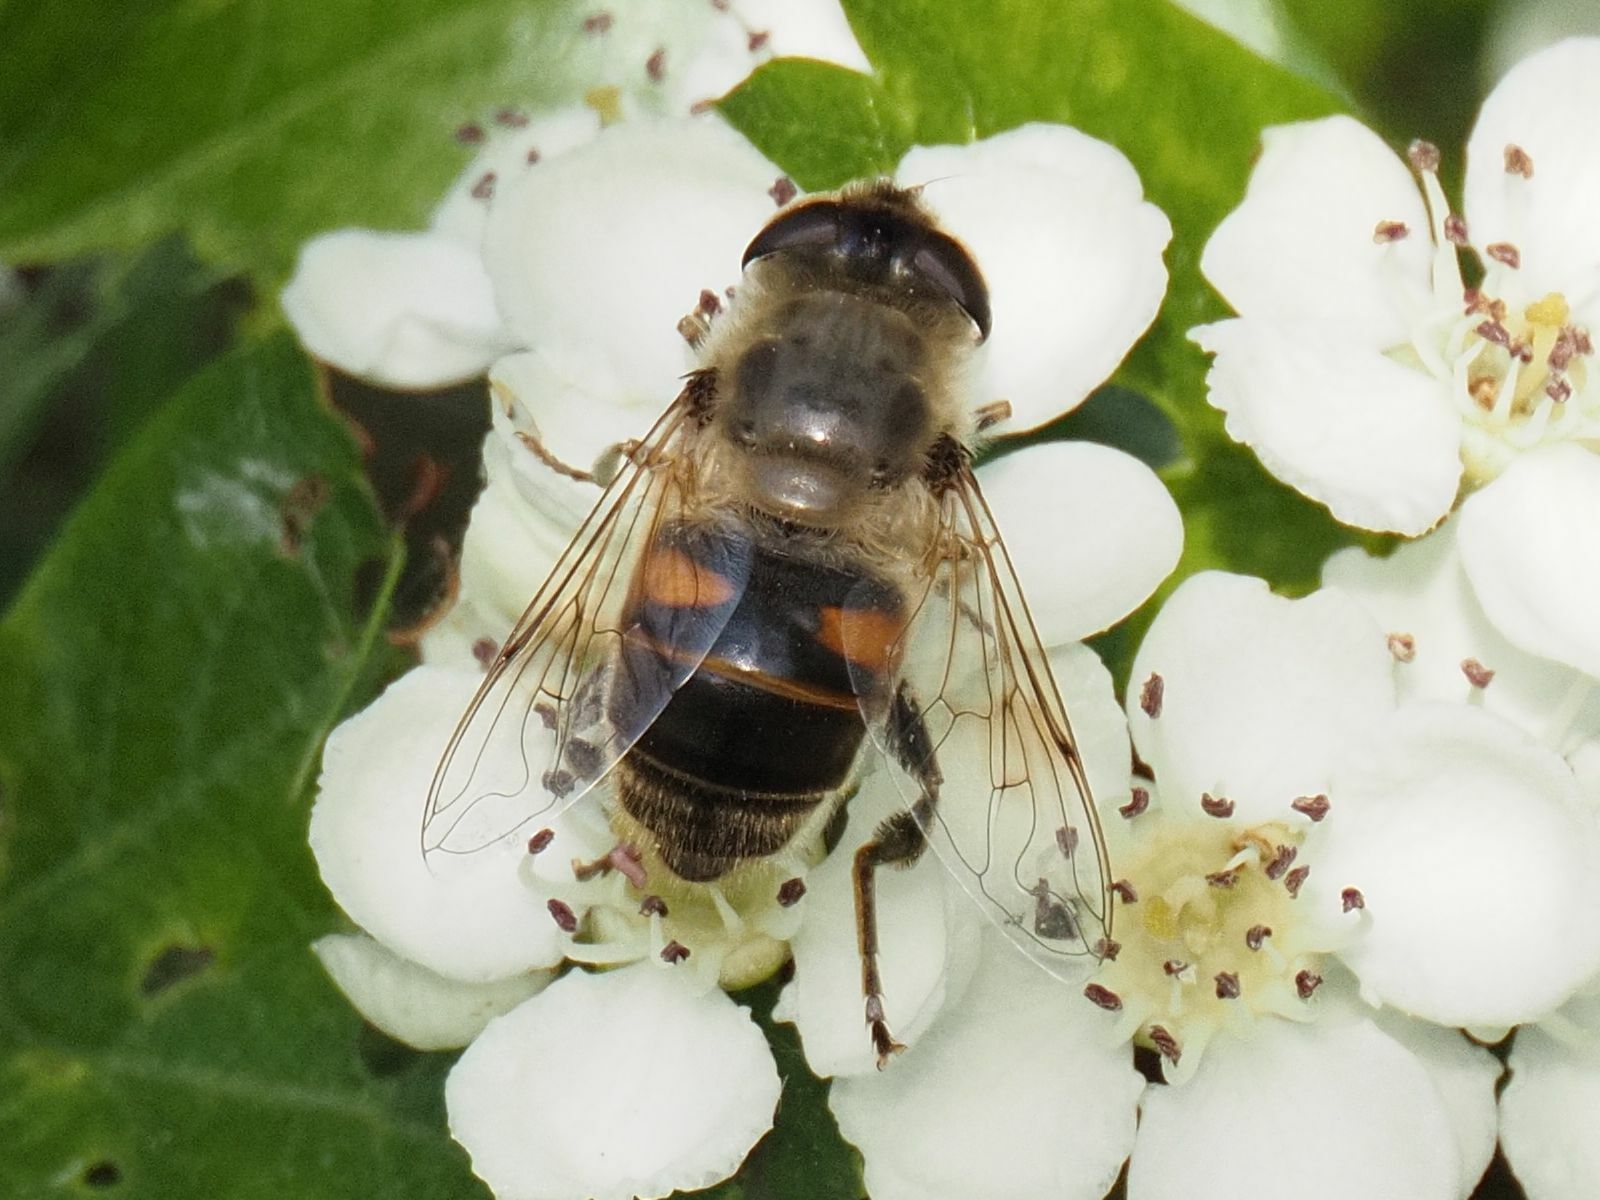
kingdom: Animalia
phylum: Arthropoda
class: Insecta
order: Diptera
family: Syrphidae
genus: Eristalis
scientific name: Eristalis tenax
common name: Drone fly
